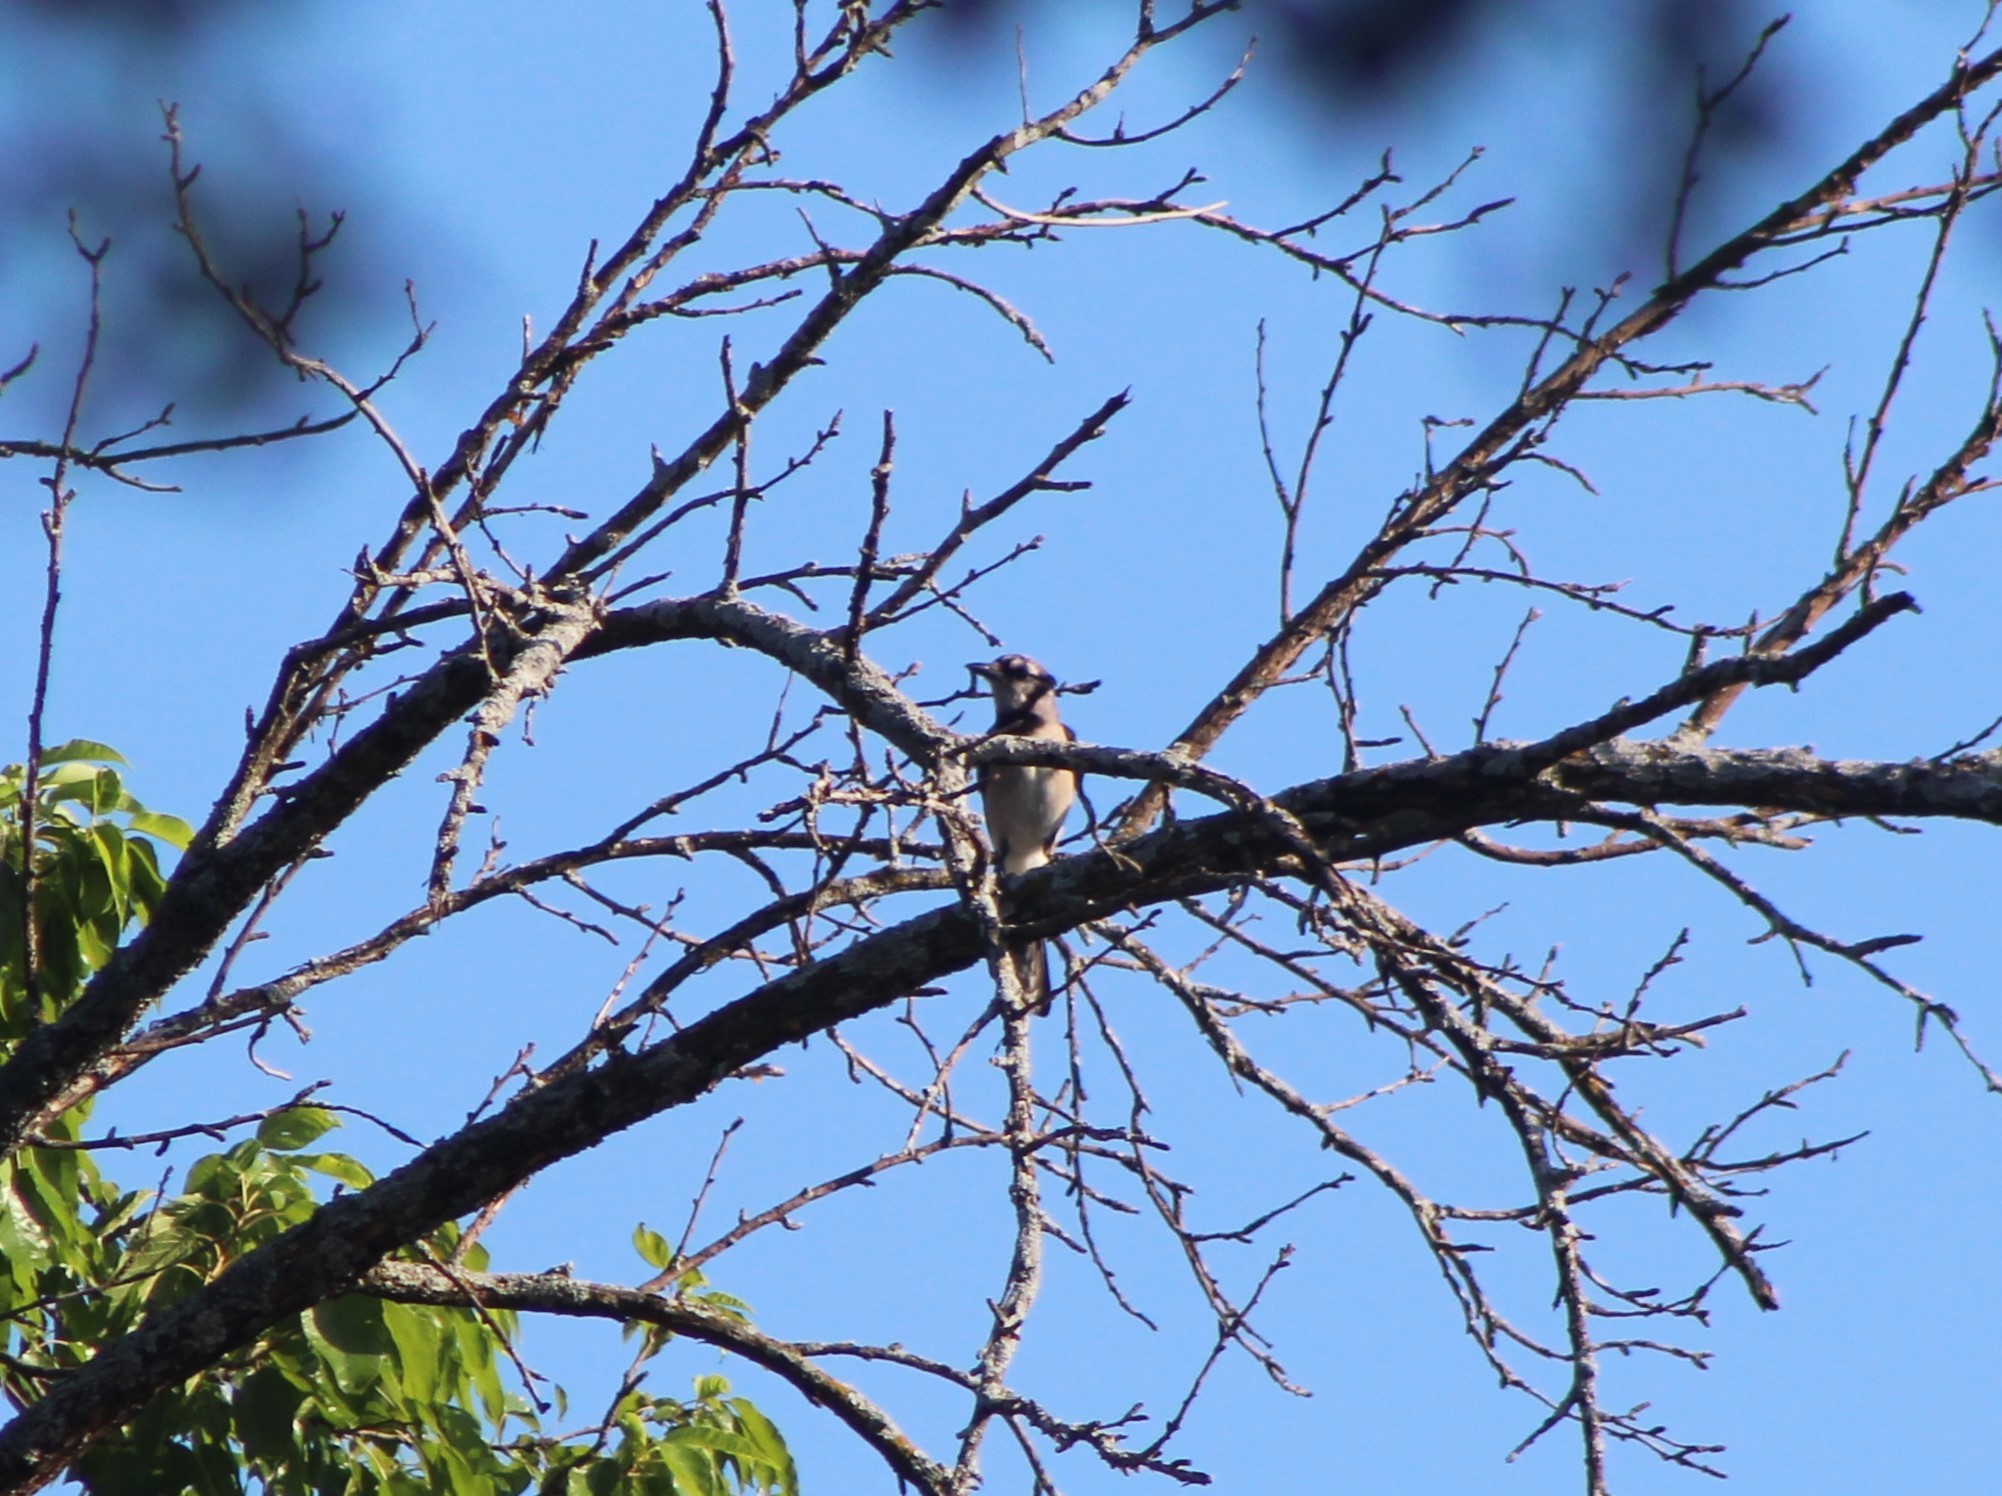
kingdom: Animalia
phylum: Chordata
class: Aves
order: Passeriformes
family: Corvidae
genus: Cyanocitta
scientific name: Cyanocitta cristata
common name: Blue jay
